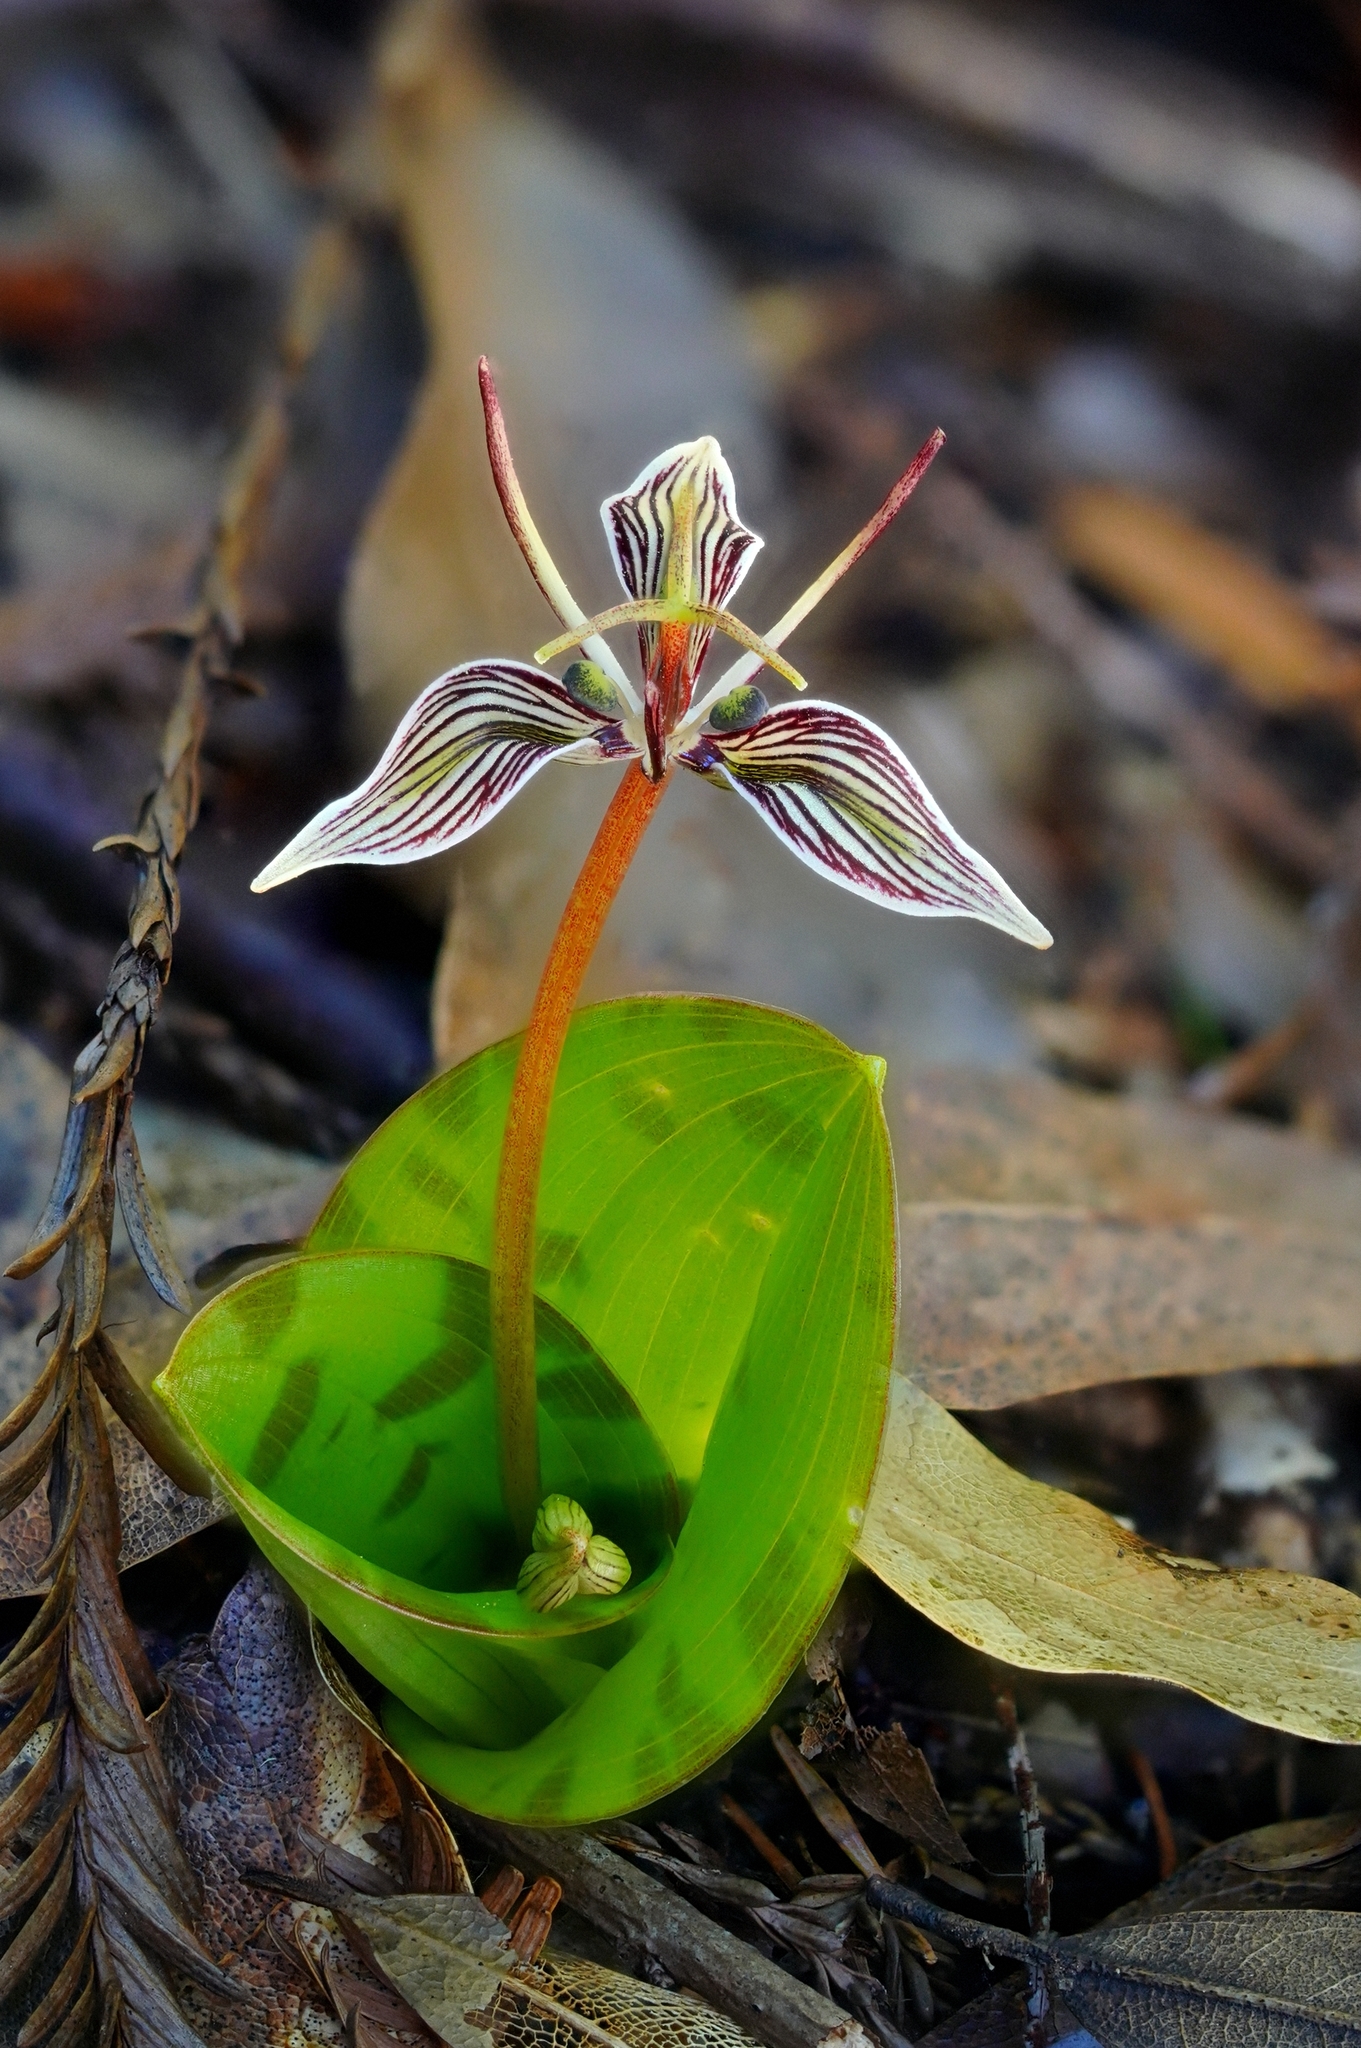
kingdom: Plantae
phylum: Tracheophyta
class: Liliopsida
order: Liliales
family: Liliaceae
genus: Scoliopus
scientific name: Scoliopus bigelovii
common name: Foetid adder's-tongue
